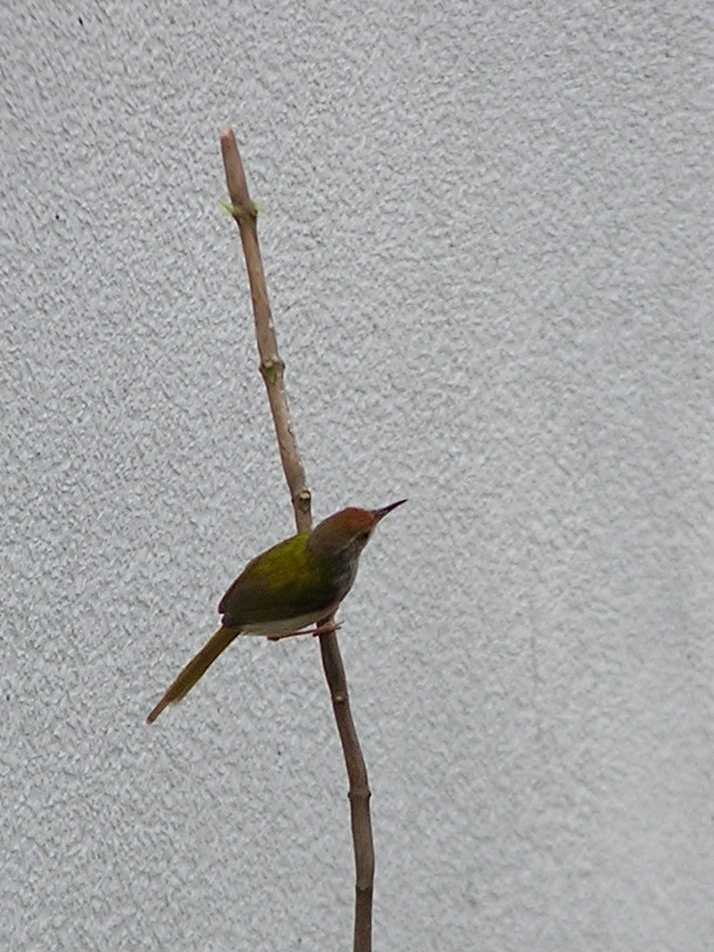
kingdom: Animalia
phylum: Chordata
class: Aves
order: Passeriformes
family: Cisticolidae
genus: Orthotomus
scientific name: Orthotomus sutorius
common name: Common tailorbird
